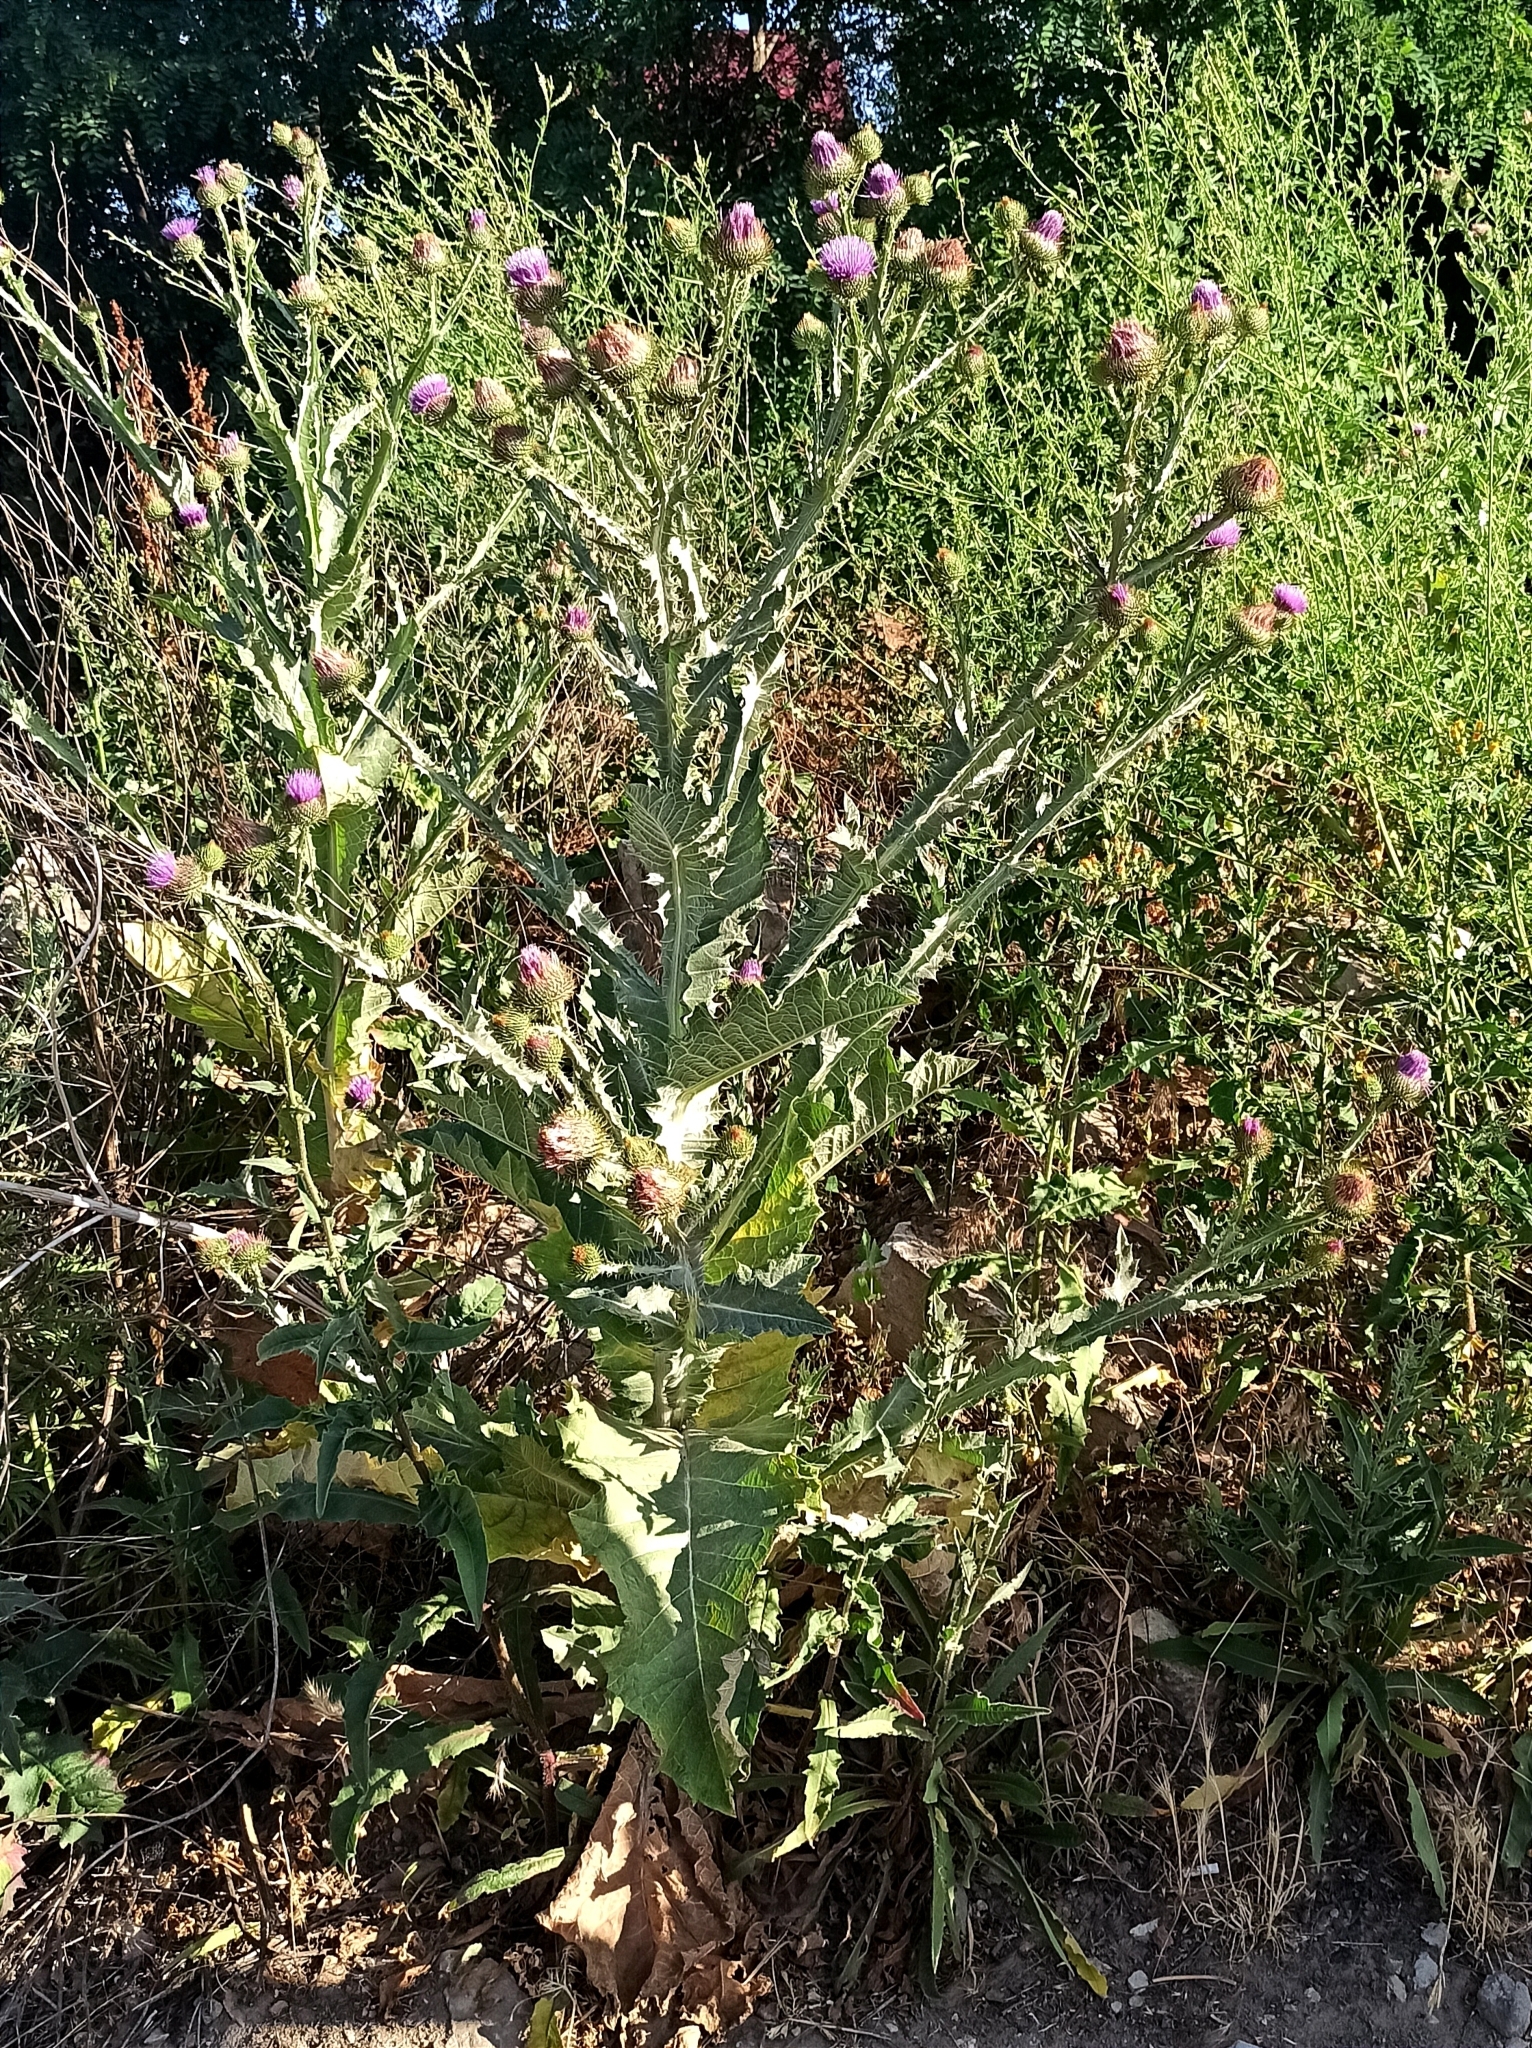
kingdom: Plantae
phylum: Tracheophyta
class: Magnoliopsida
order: Asterales
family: Asteraceae
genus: Onopordum
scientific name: Onopordum acanthium
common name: Scotch thistle
